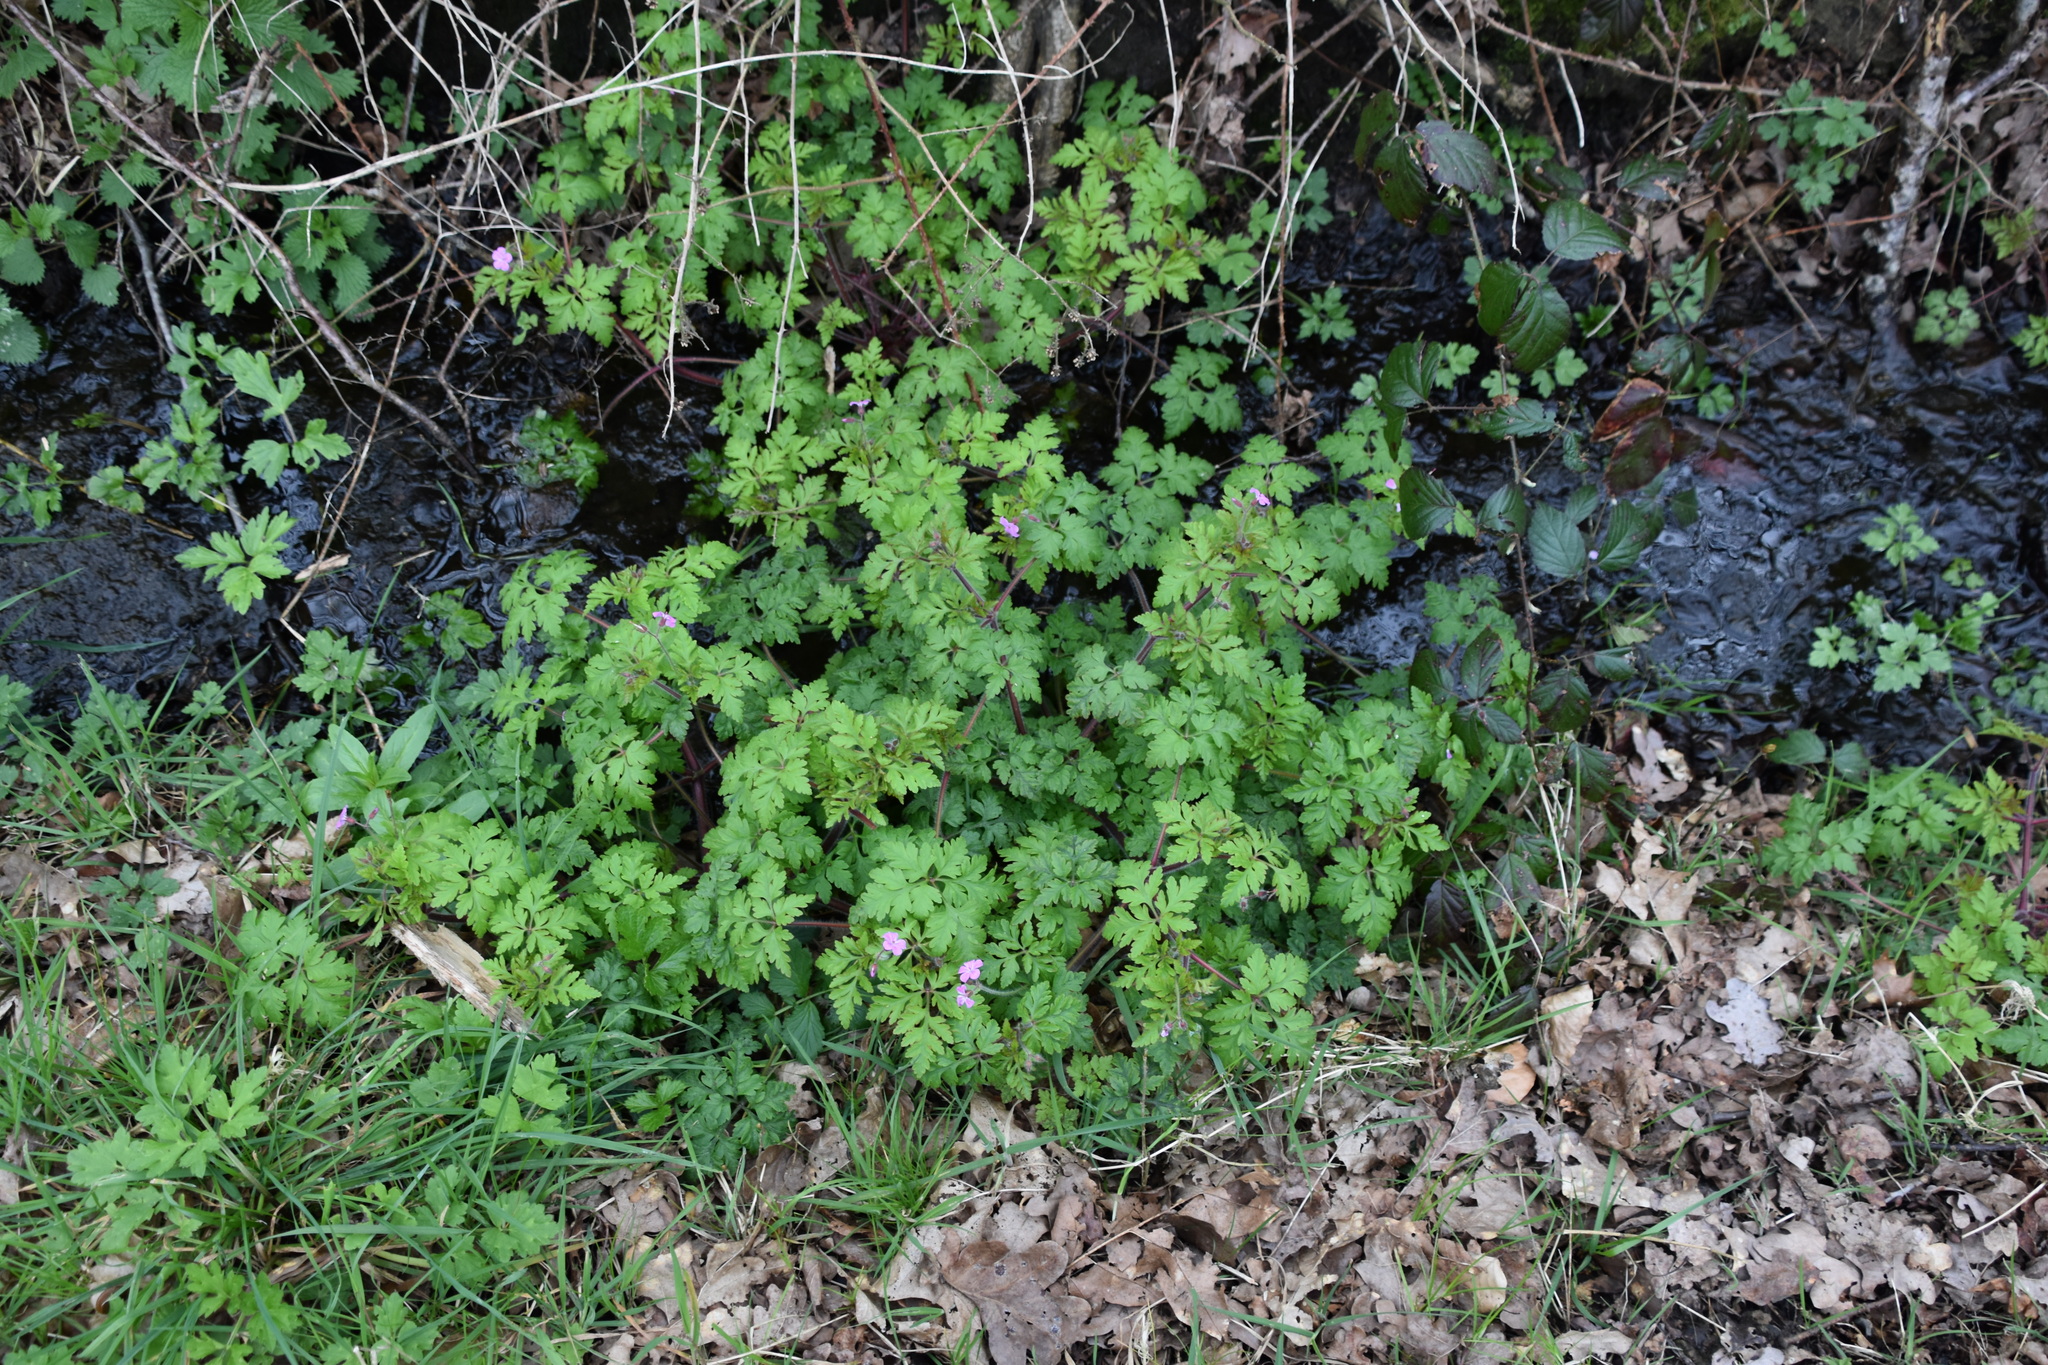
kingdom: Plantae
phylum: Tracheophyta
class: Magnoliopsida
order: Geraniales
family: Geraniaceae
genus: Geranium
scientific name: Geranium robertianum
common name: Herb-robert
